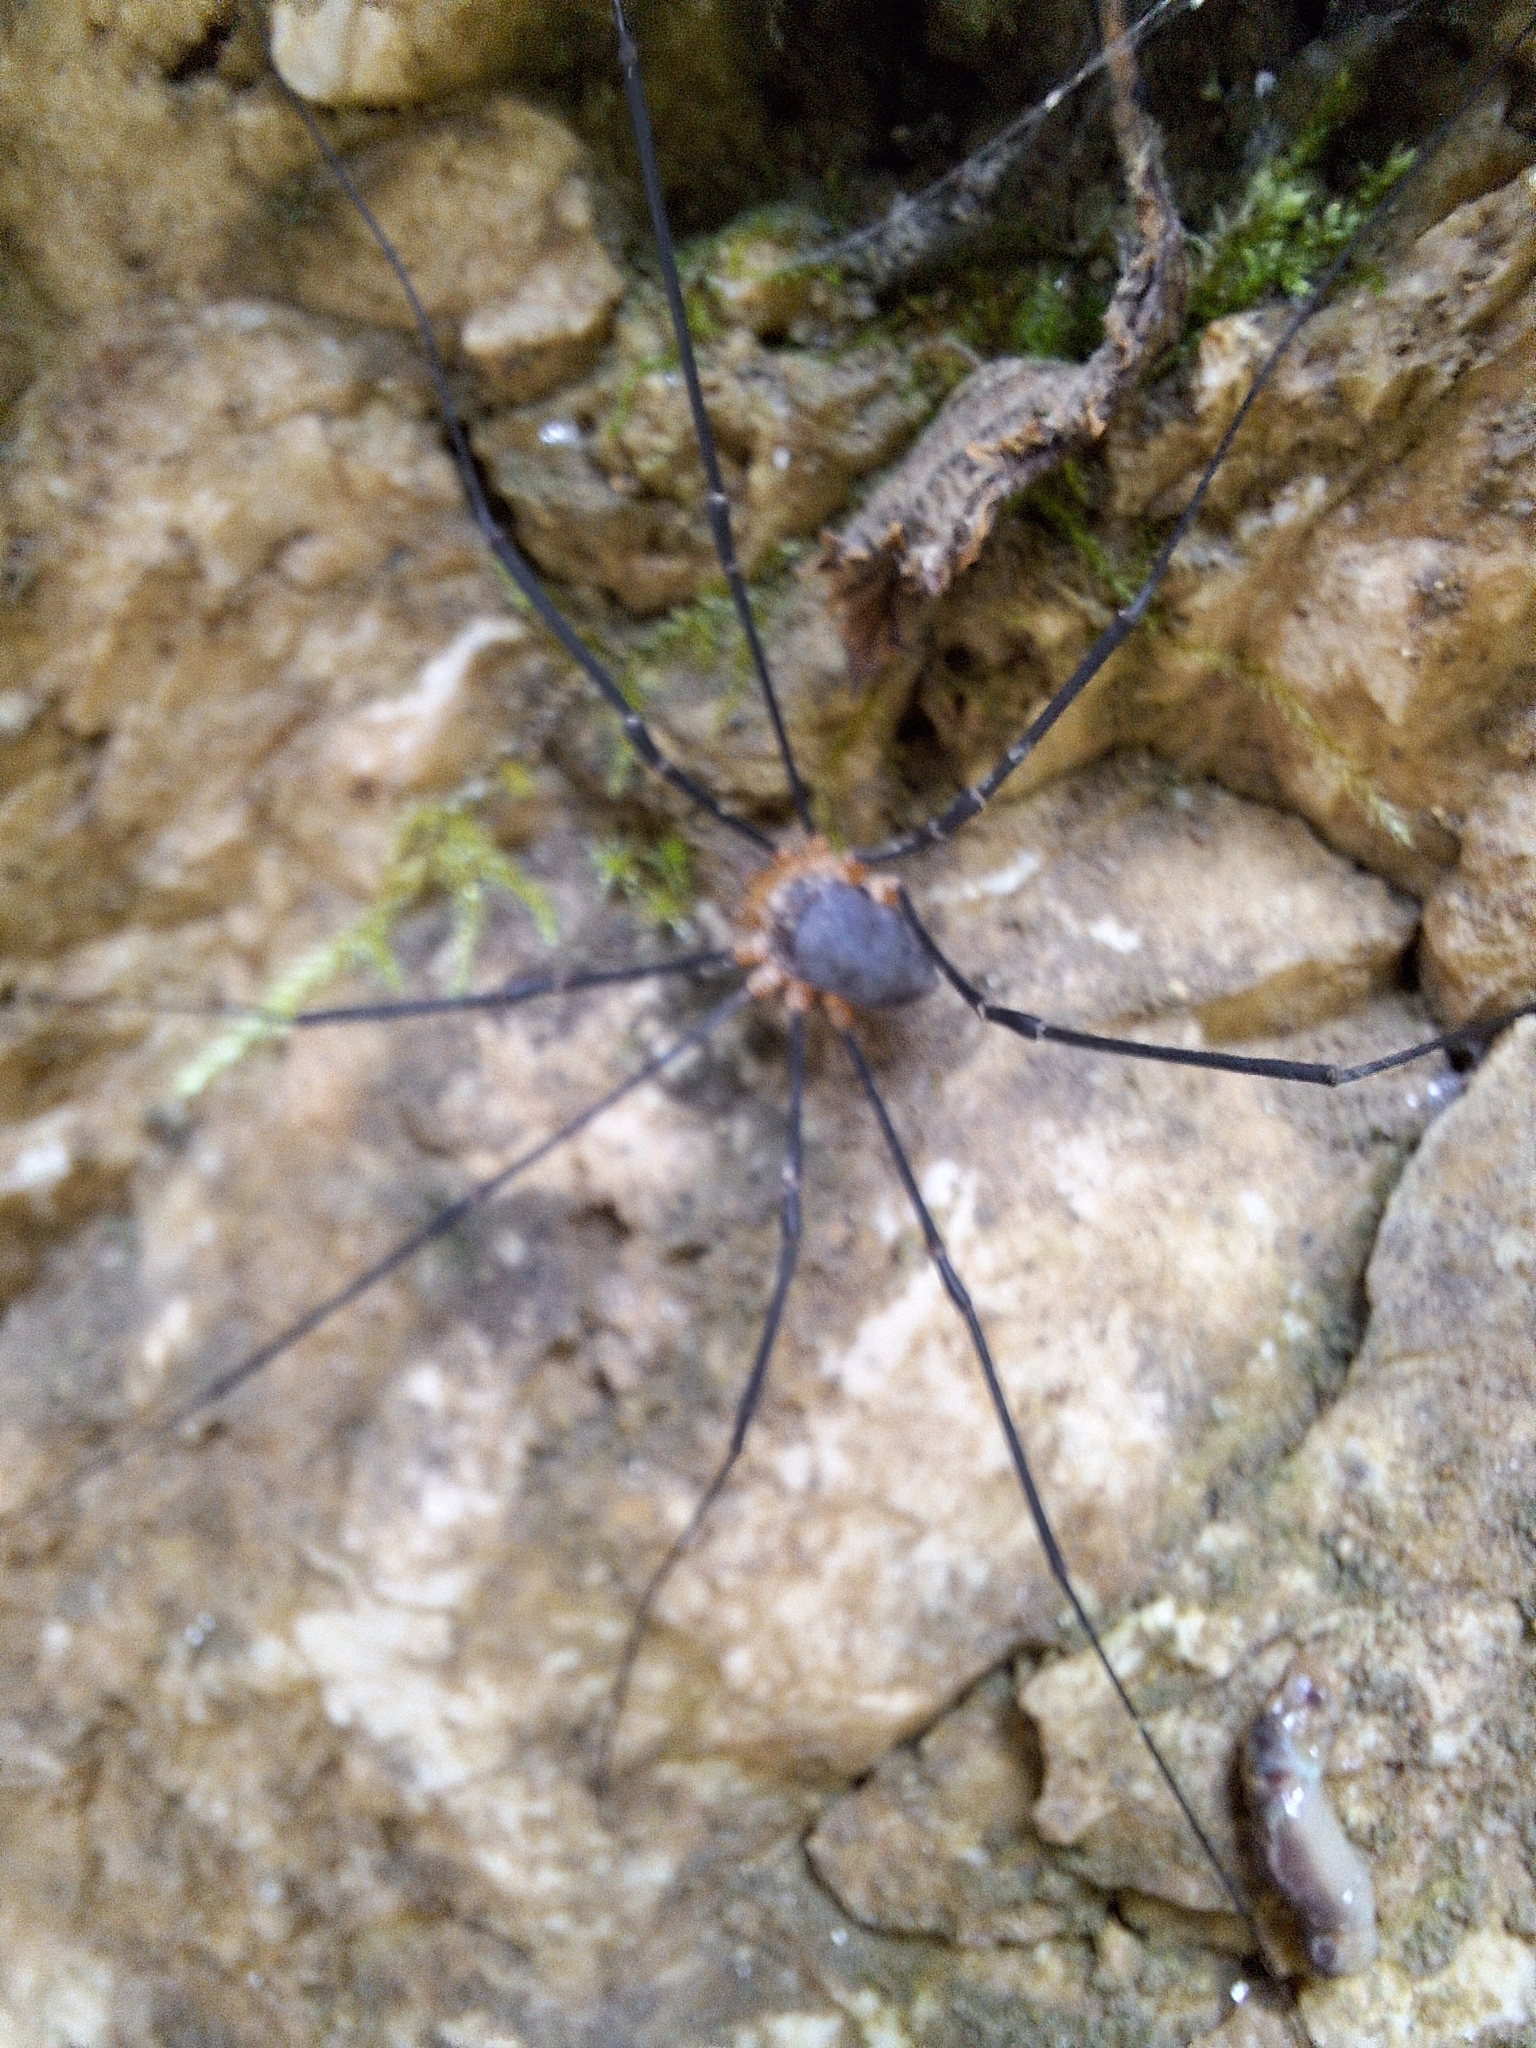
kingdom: Animalia
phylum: Arthropoda
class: Arachnida
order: Opiliones
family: Sclerosomatidae
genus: Gyas
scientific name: Gyas annulatus
